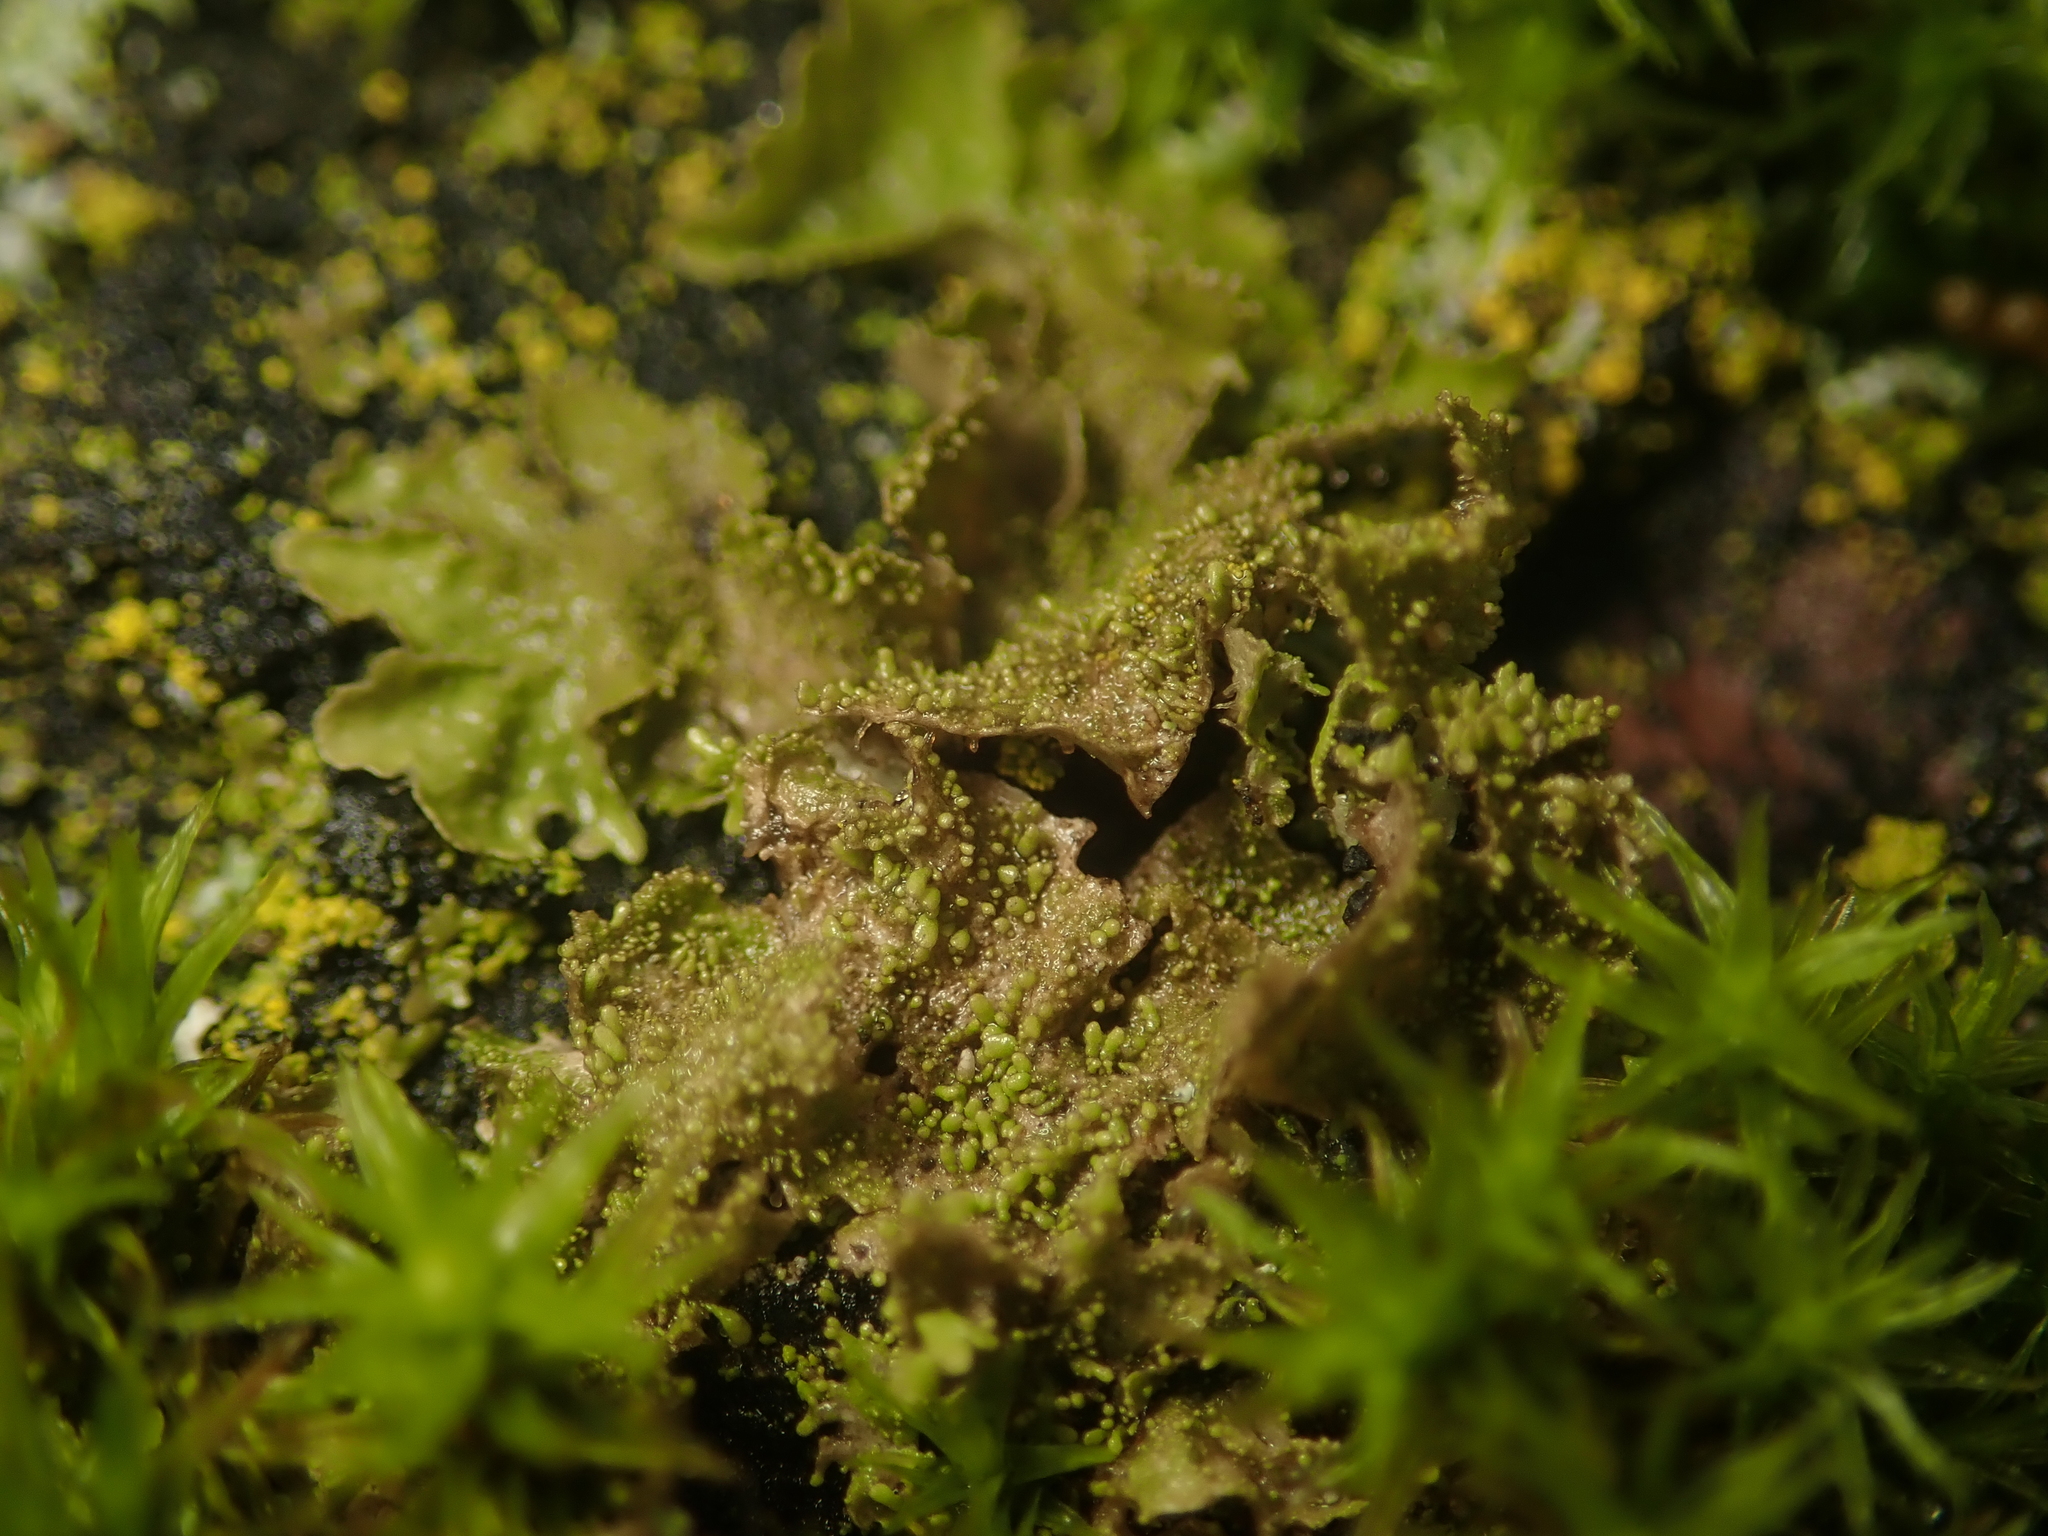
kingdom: Fungi
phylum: Ascomycota
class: Lecanoromycetes
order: Lecanorales
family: Parmeliaceae
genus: Melanohalea
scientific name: Melanohalea exasperatula
